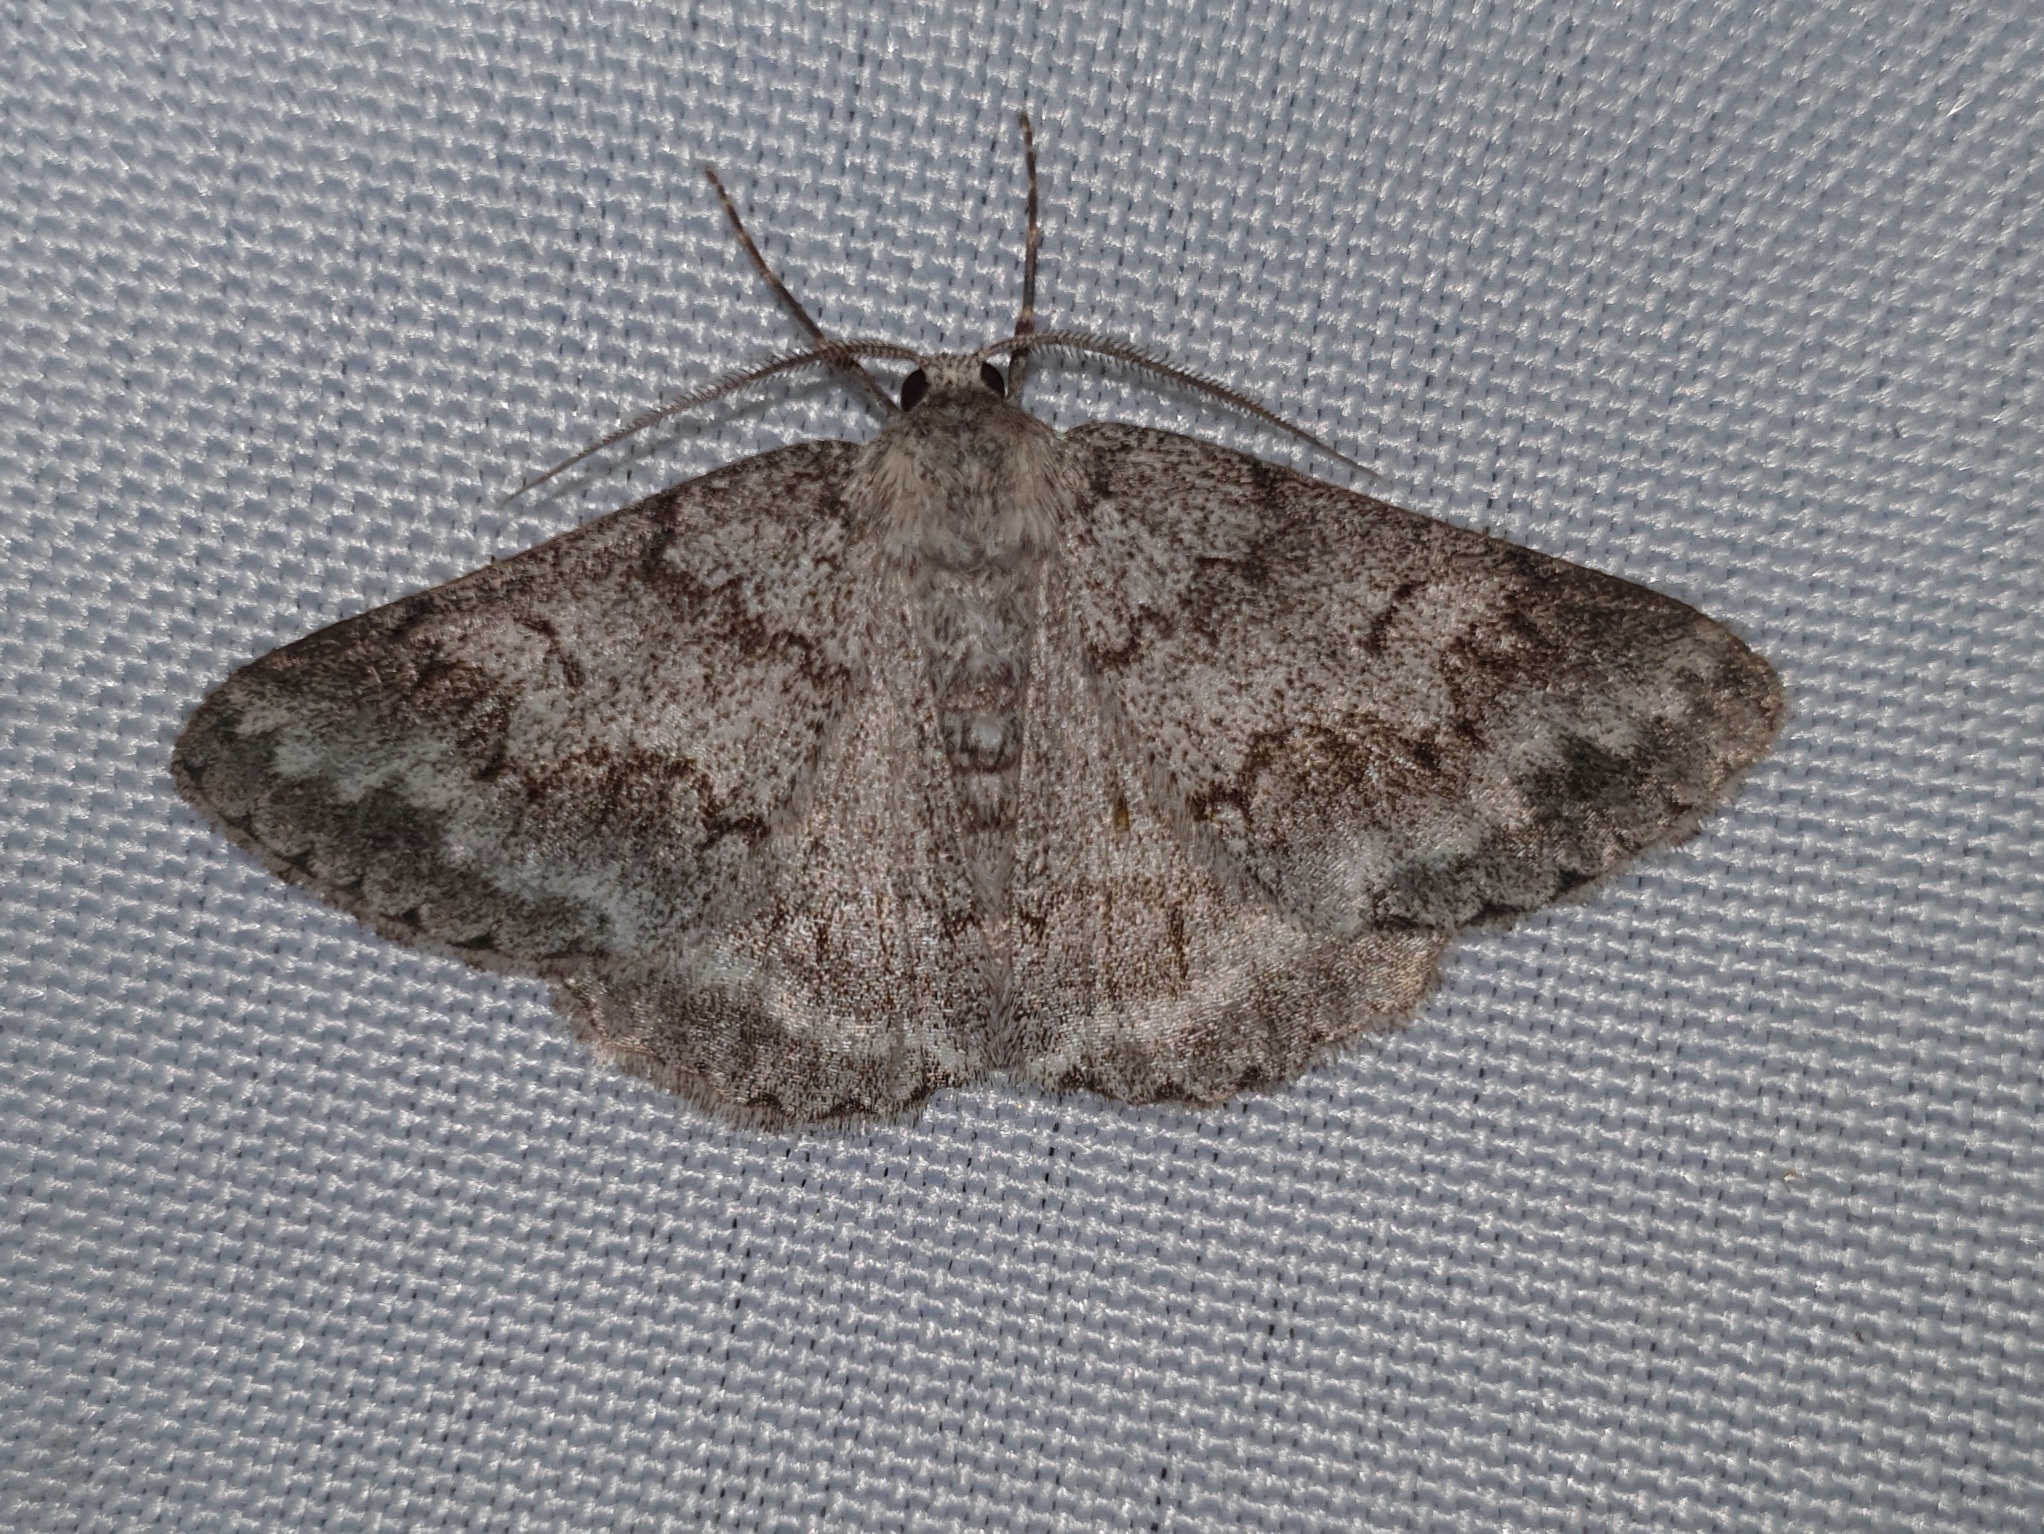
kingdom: Animalia
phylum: Arthropoda
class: Insecta
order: Lepidoptera
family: Geometridae
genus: Pseudoterpna
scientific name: Pseudoterpna coronillaria
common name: Jersey emerald
